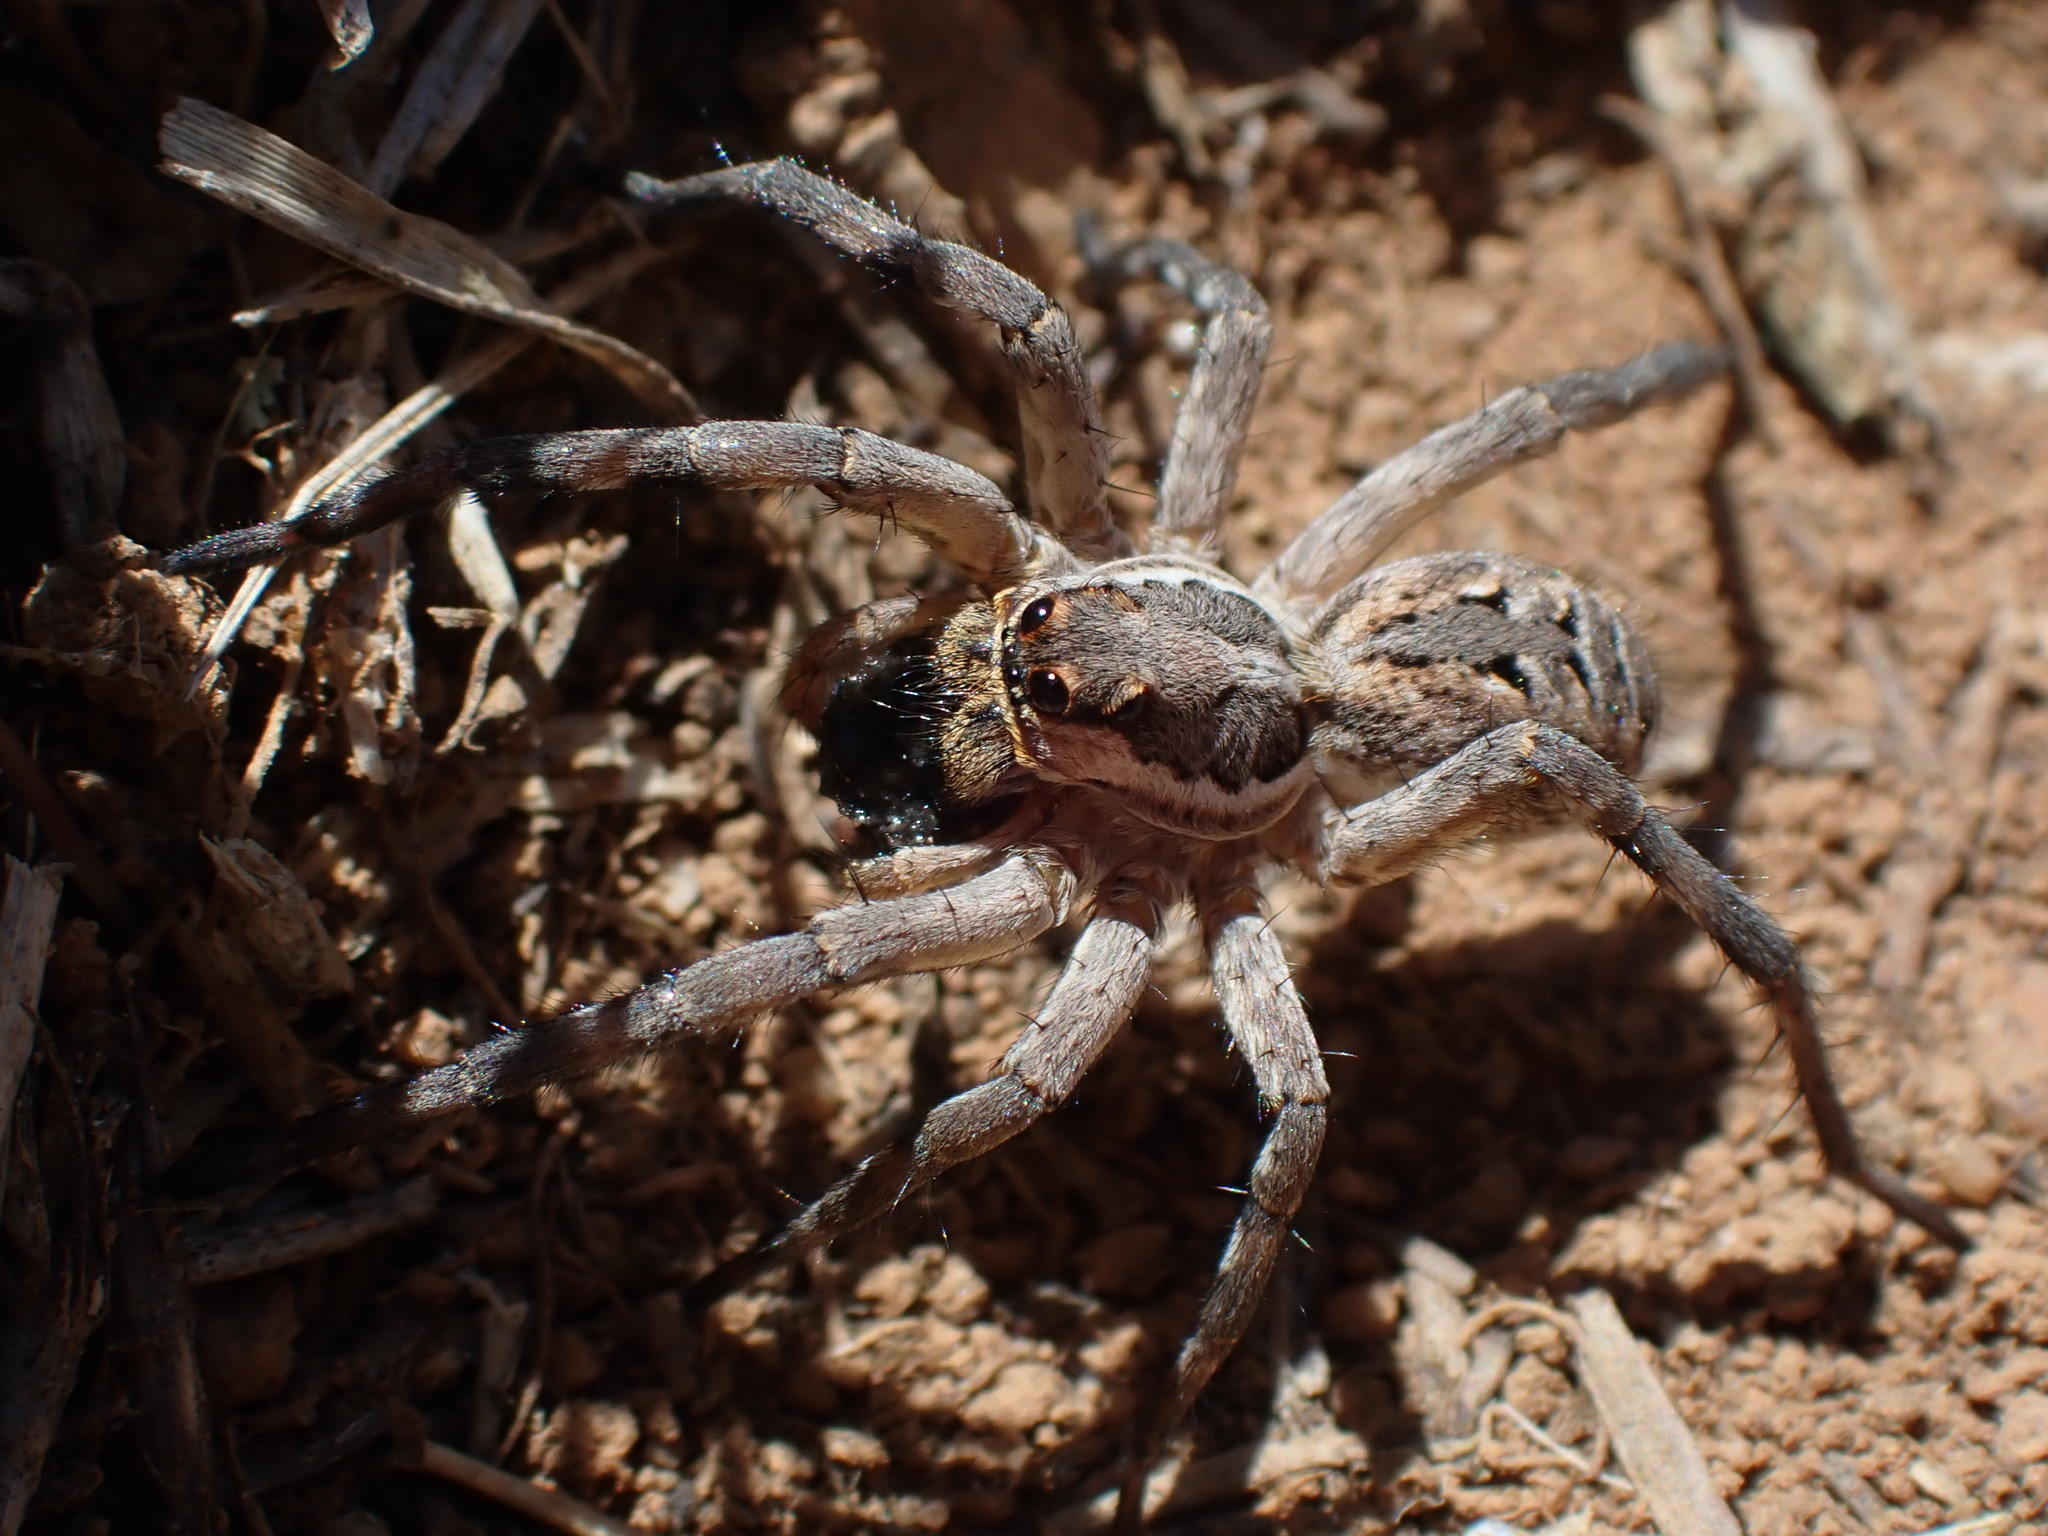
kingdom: Animalia
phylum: Arthropoda
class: Arachnida
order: Araneae
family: Lycosidae
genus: Lycosa
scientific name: Lycosa tarantula
